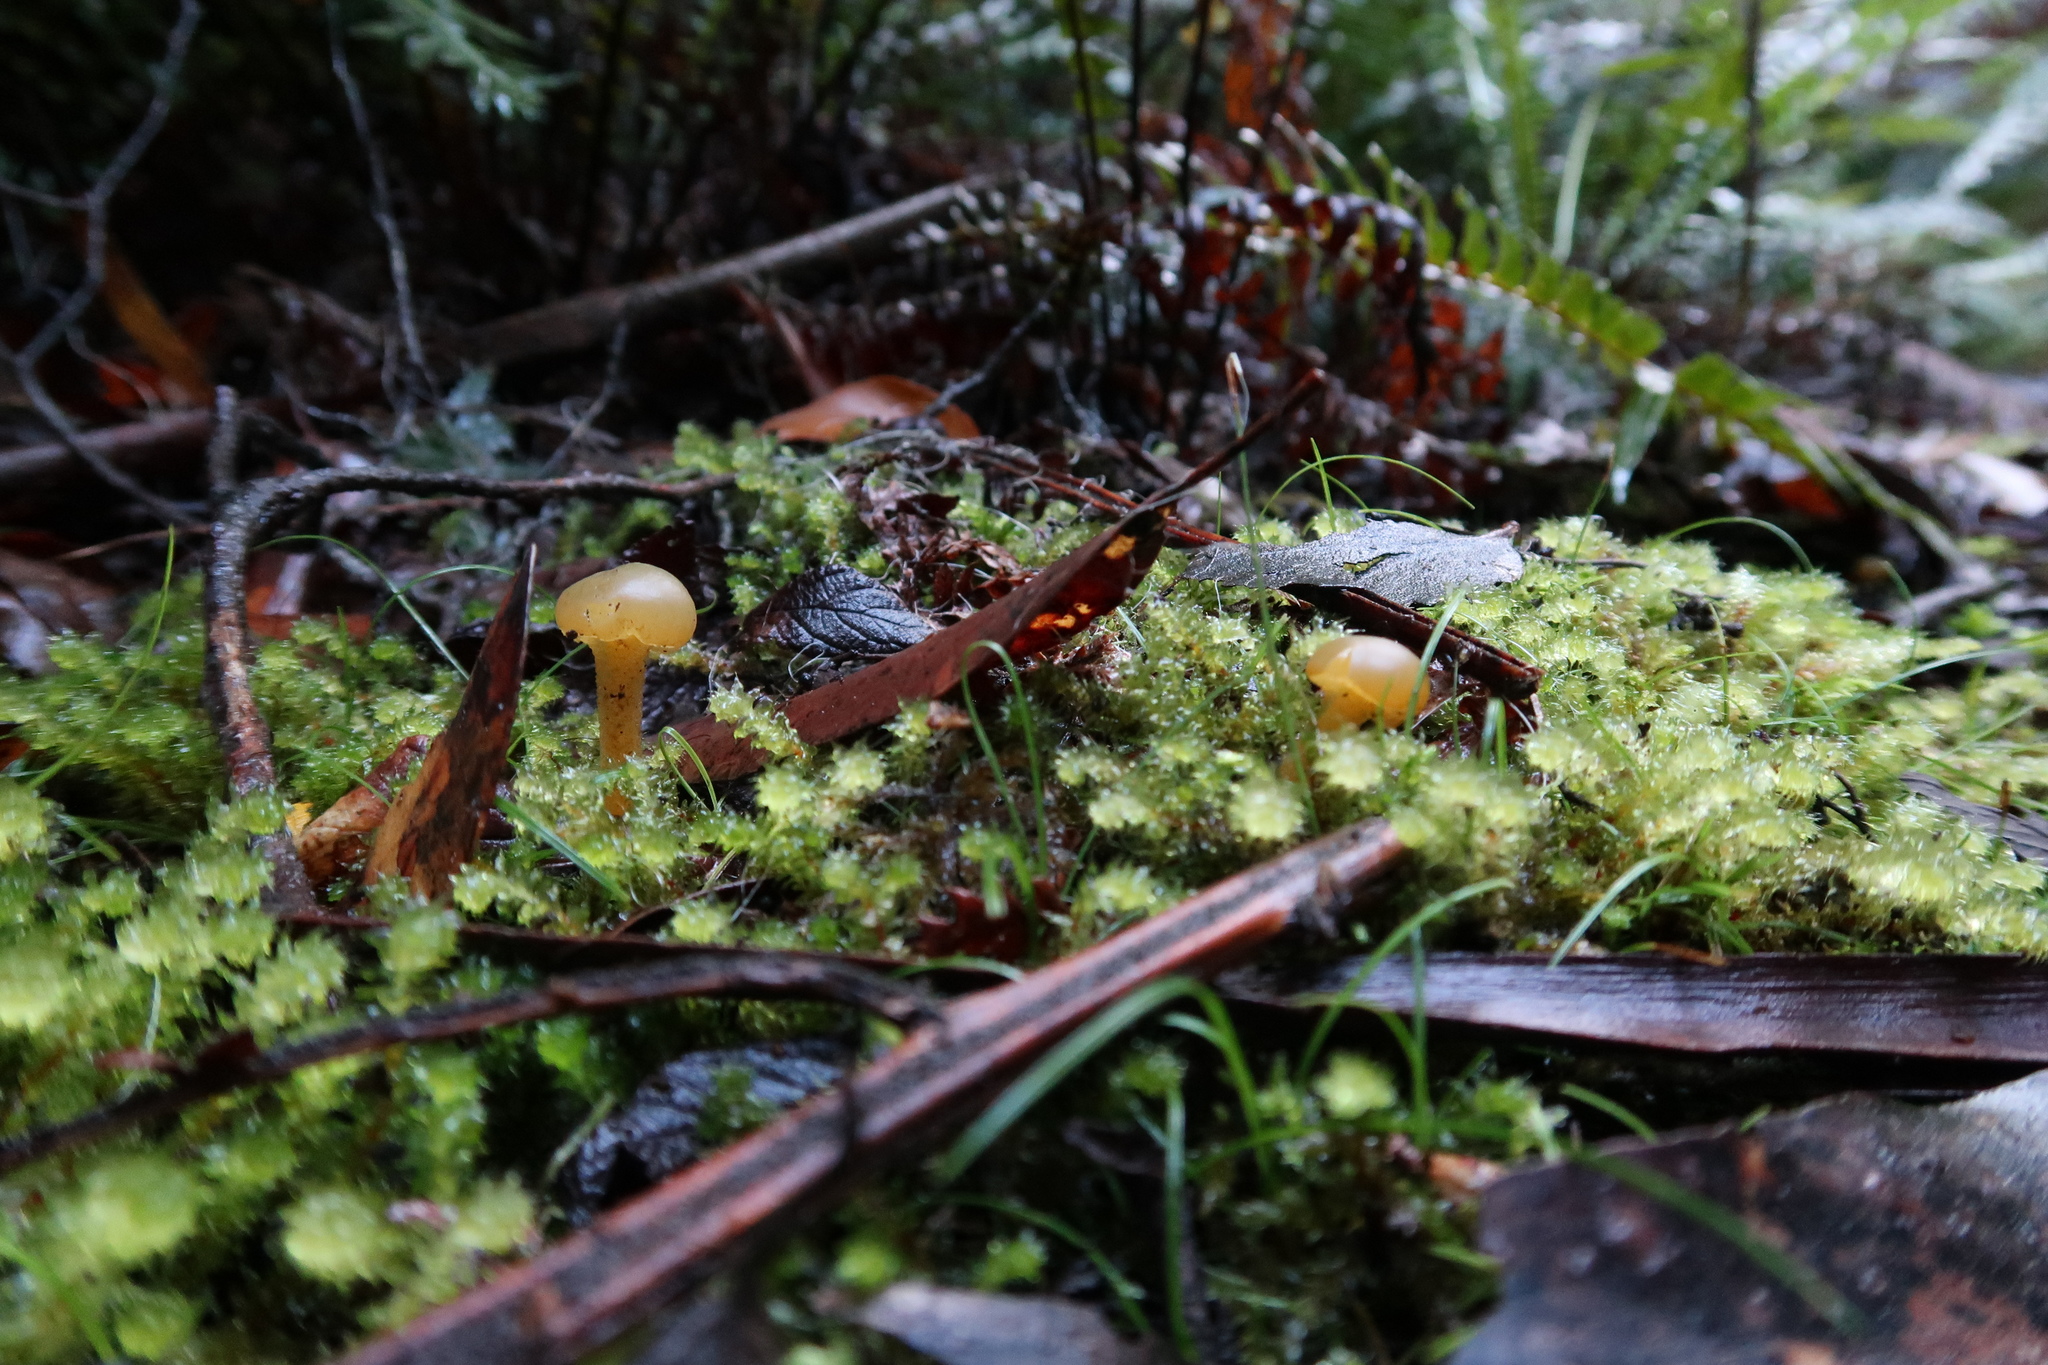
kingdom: Fungi
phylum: Ascomycota
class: Leotiomycetes
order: Leotiales
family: Leotiaceae
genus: Leotia
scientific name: Leotia lubrica
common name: Jellybaby
